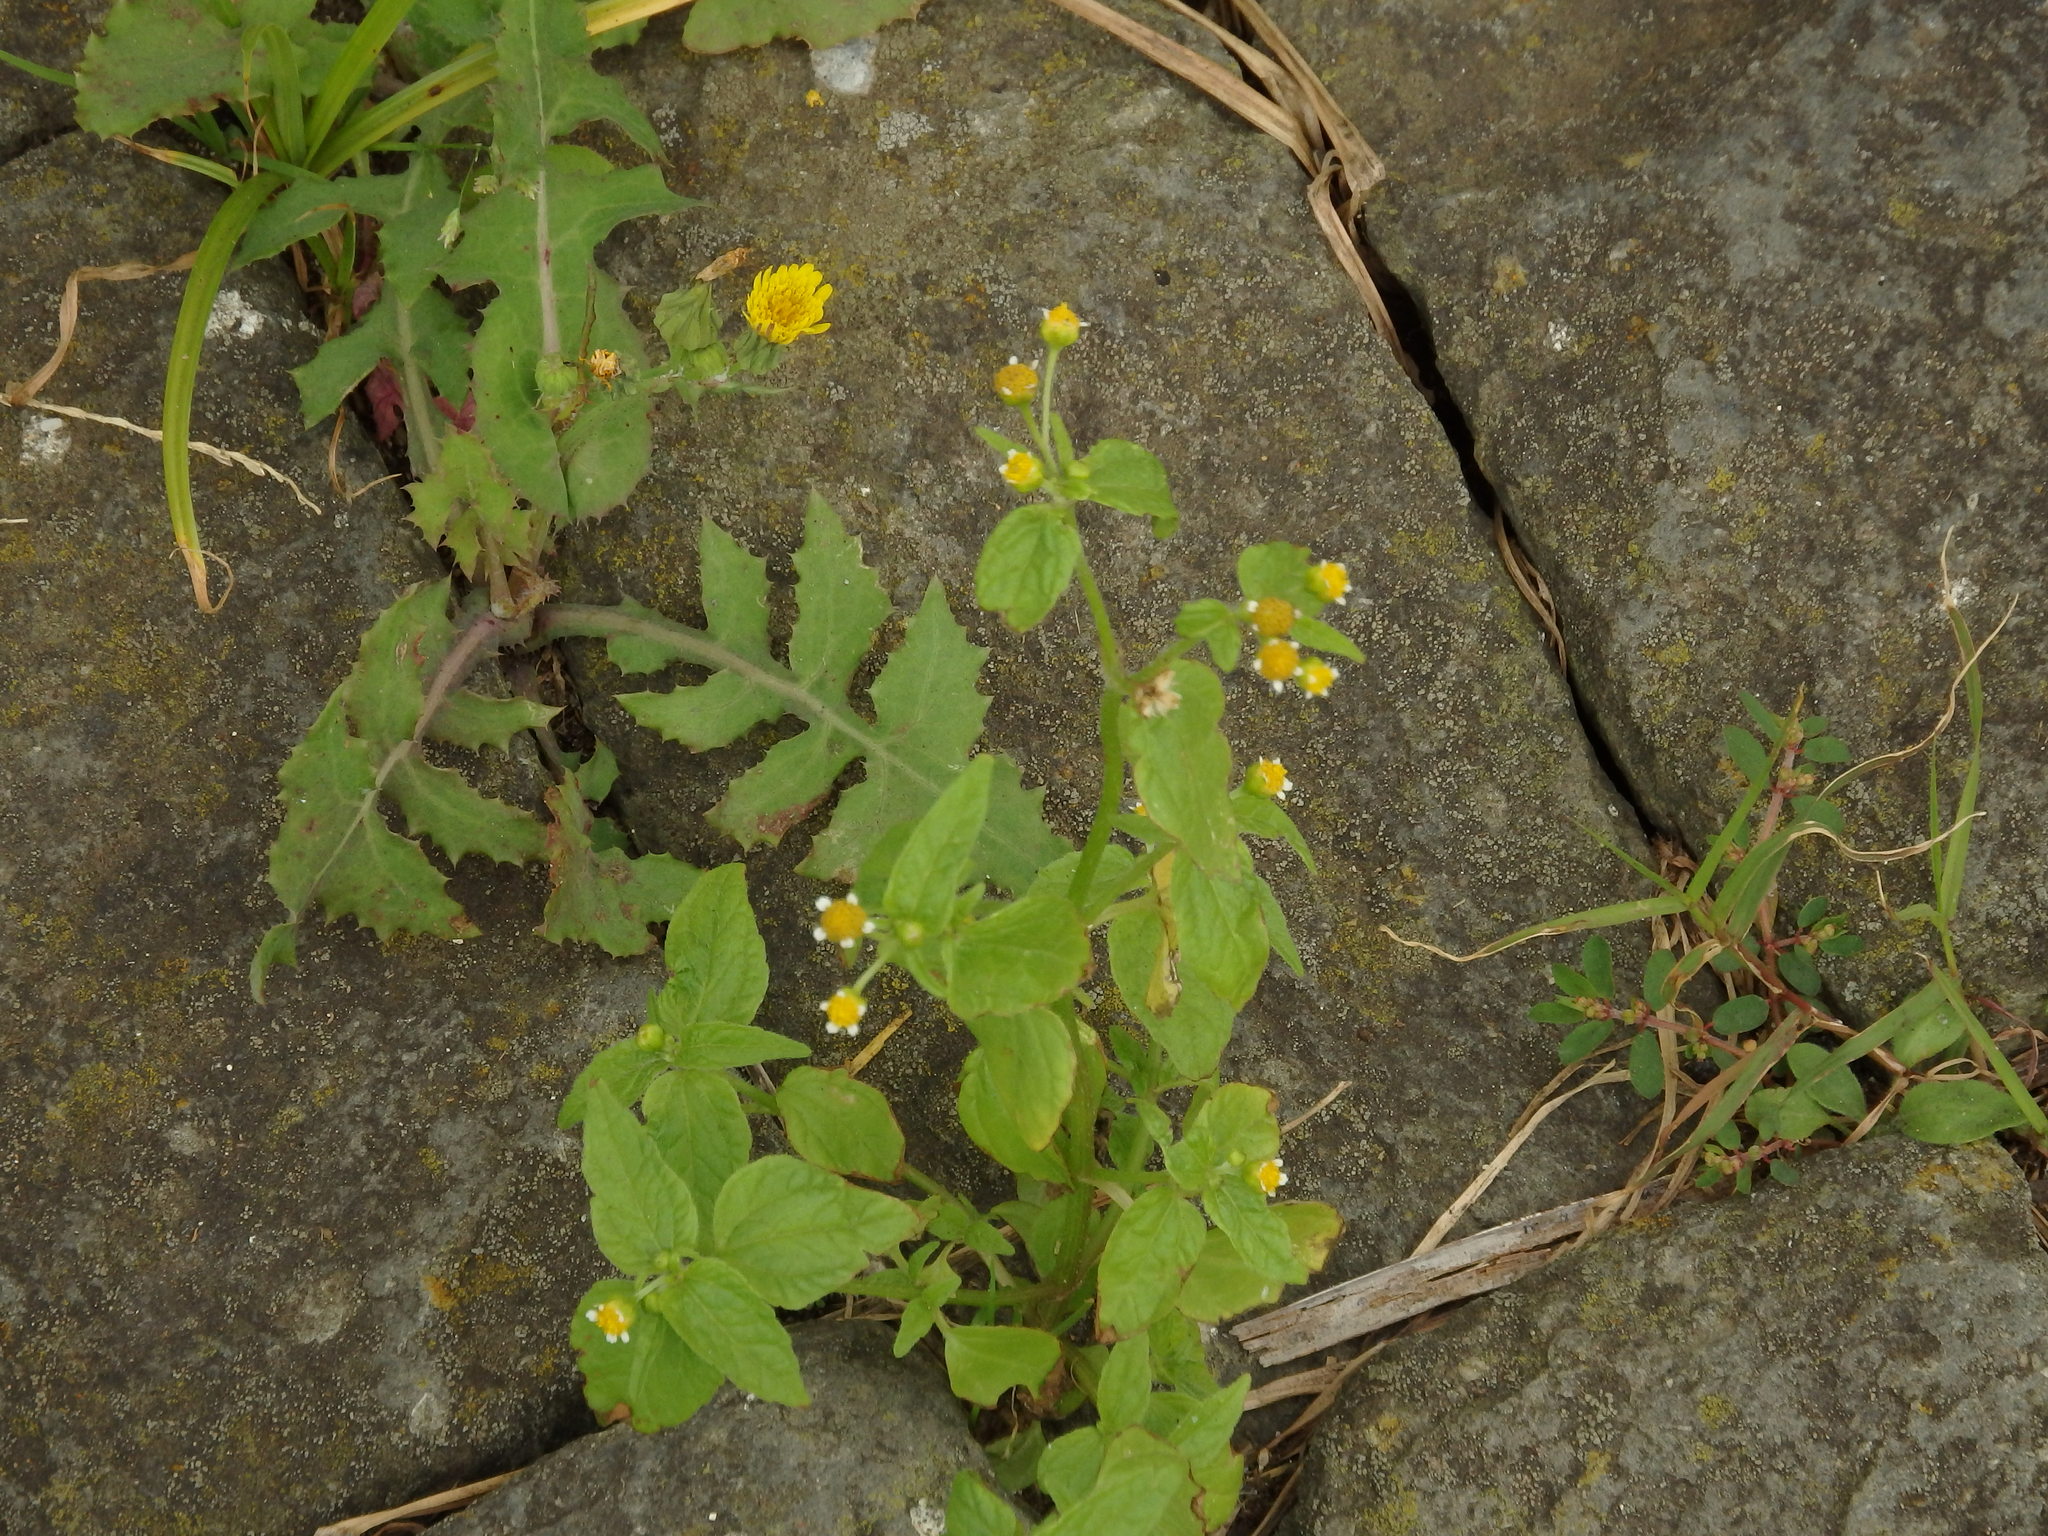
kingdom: Plantae
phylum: Tracheophyta
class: Magnoliopsida
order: Asterales
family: Asteraceae
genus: Galinsoga
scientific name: Galinsoga parviflora
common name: Gallant soldier
